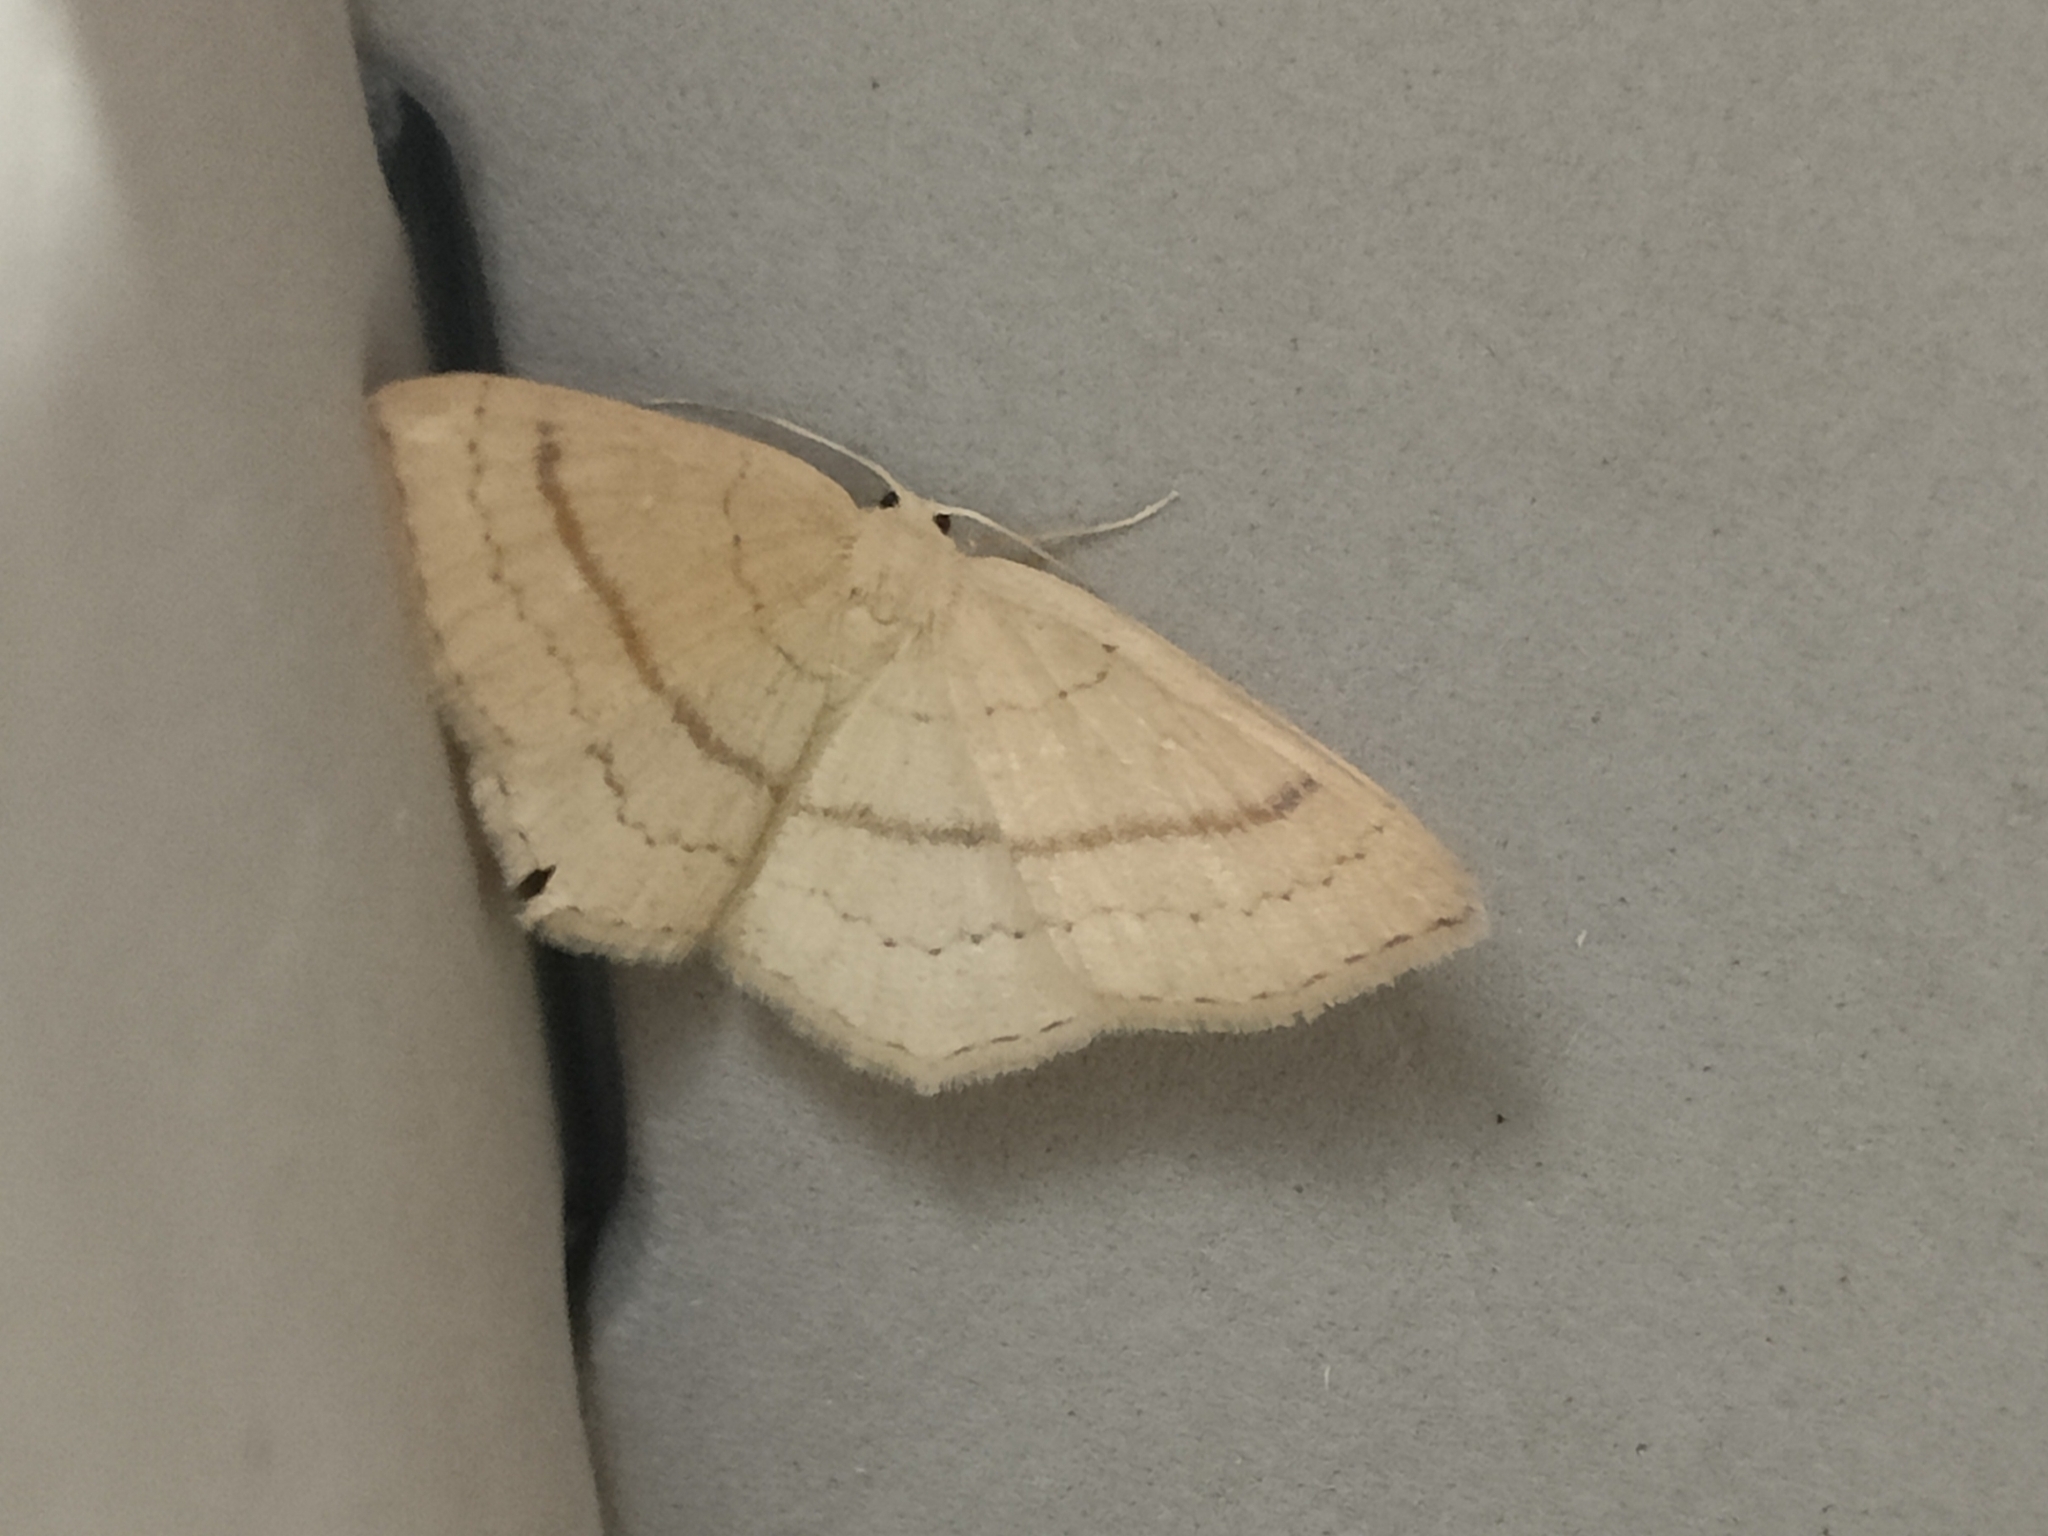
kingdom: Animalia
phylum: Arthropoda
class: Insecta
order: Lepidoptera
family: Geometridae
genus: Cyclophora
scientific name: Cyclophora linearia
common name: Clay triple-lines
